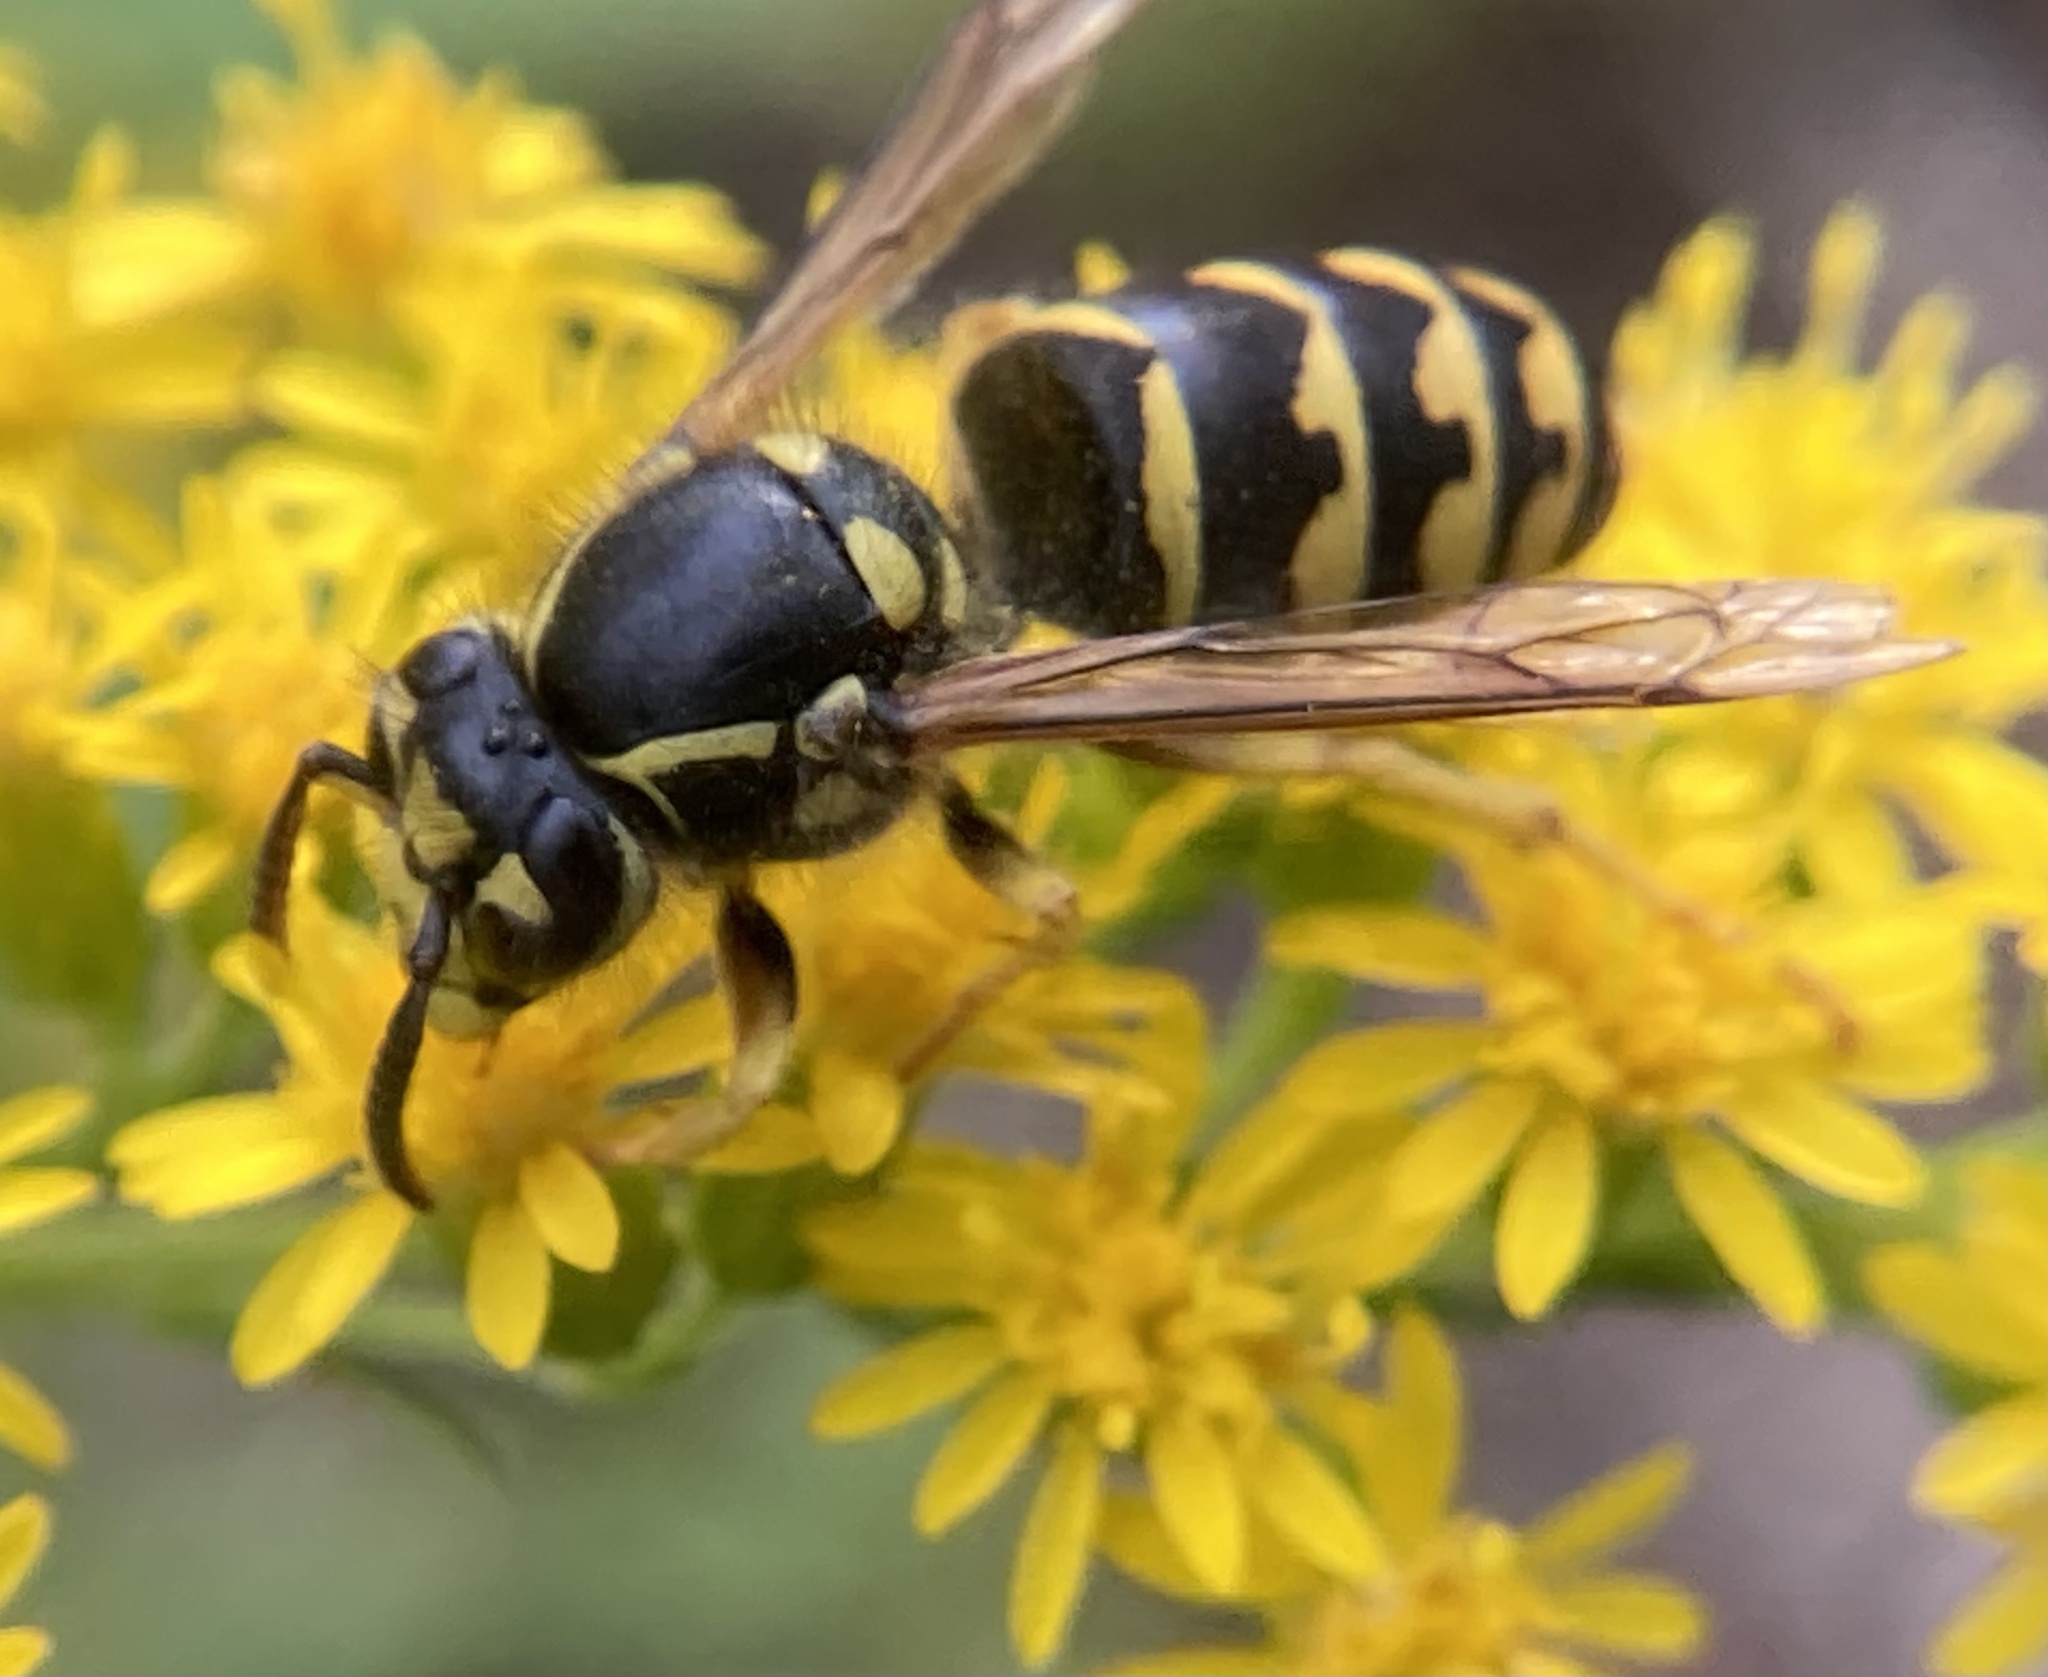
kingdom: Animalia
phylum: Arthropoda
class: Insecta
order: Hymenoptera
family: Vespidae
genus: Dolichovespula
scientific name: Dolichovespula arenaria
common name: Aerial yellowjacket
